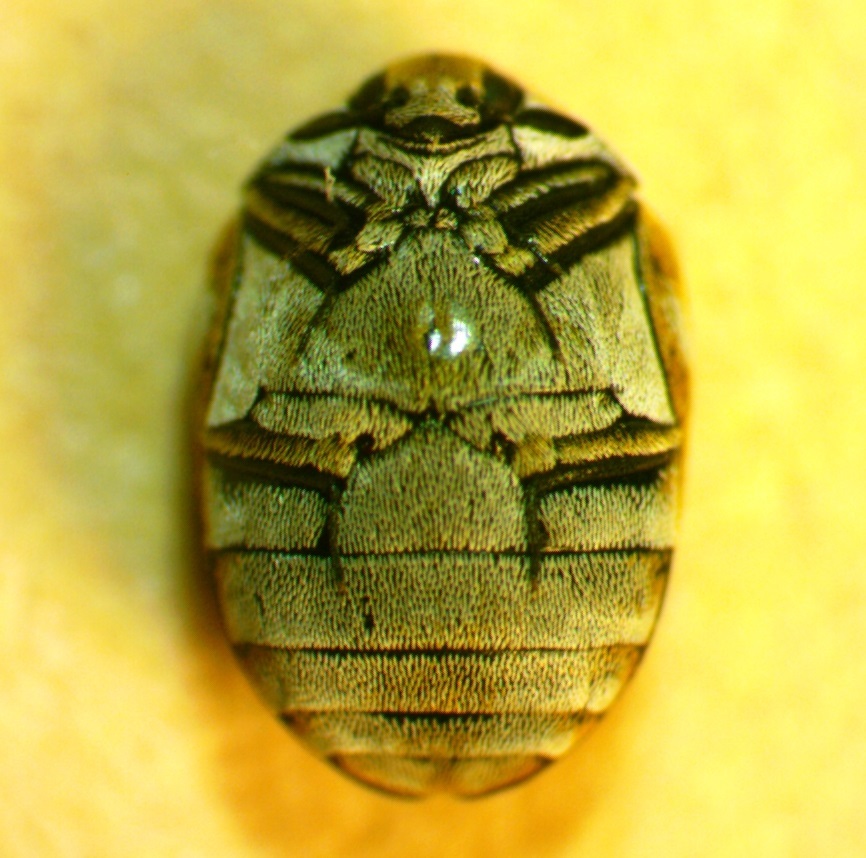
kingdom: Animalia
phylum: Arthropoda
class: Insecta
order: Coleoptera
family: Dermestidae
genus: Anthrenus
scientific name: Anthrenus verbasci
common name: Varied carpet beetle
